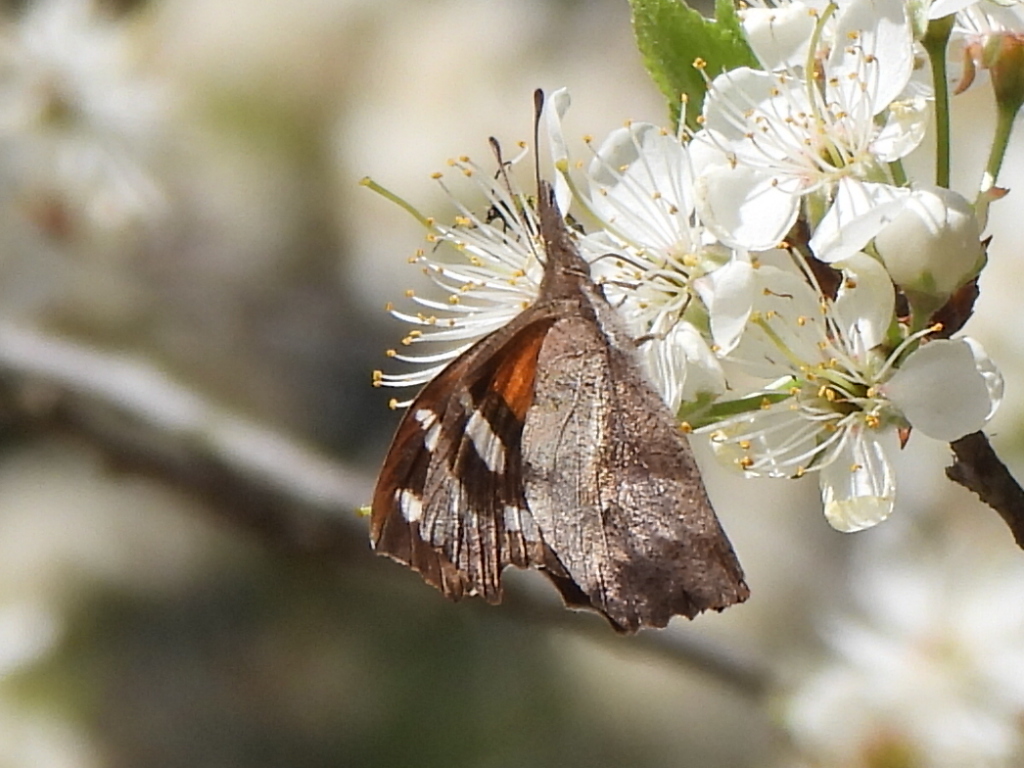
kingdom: Animalia
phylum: Arthropoda
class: Insecta
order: Lepidoptera
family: Nymphalidae
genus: Libytheana
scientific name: Libytheana carinenta
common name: American snout
